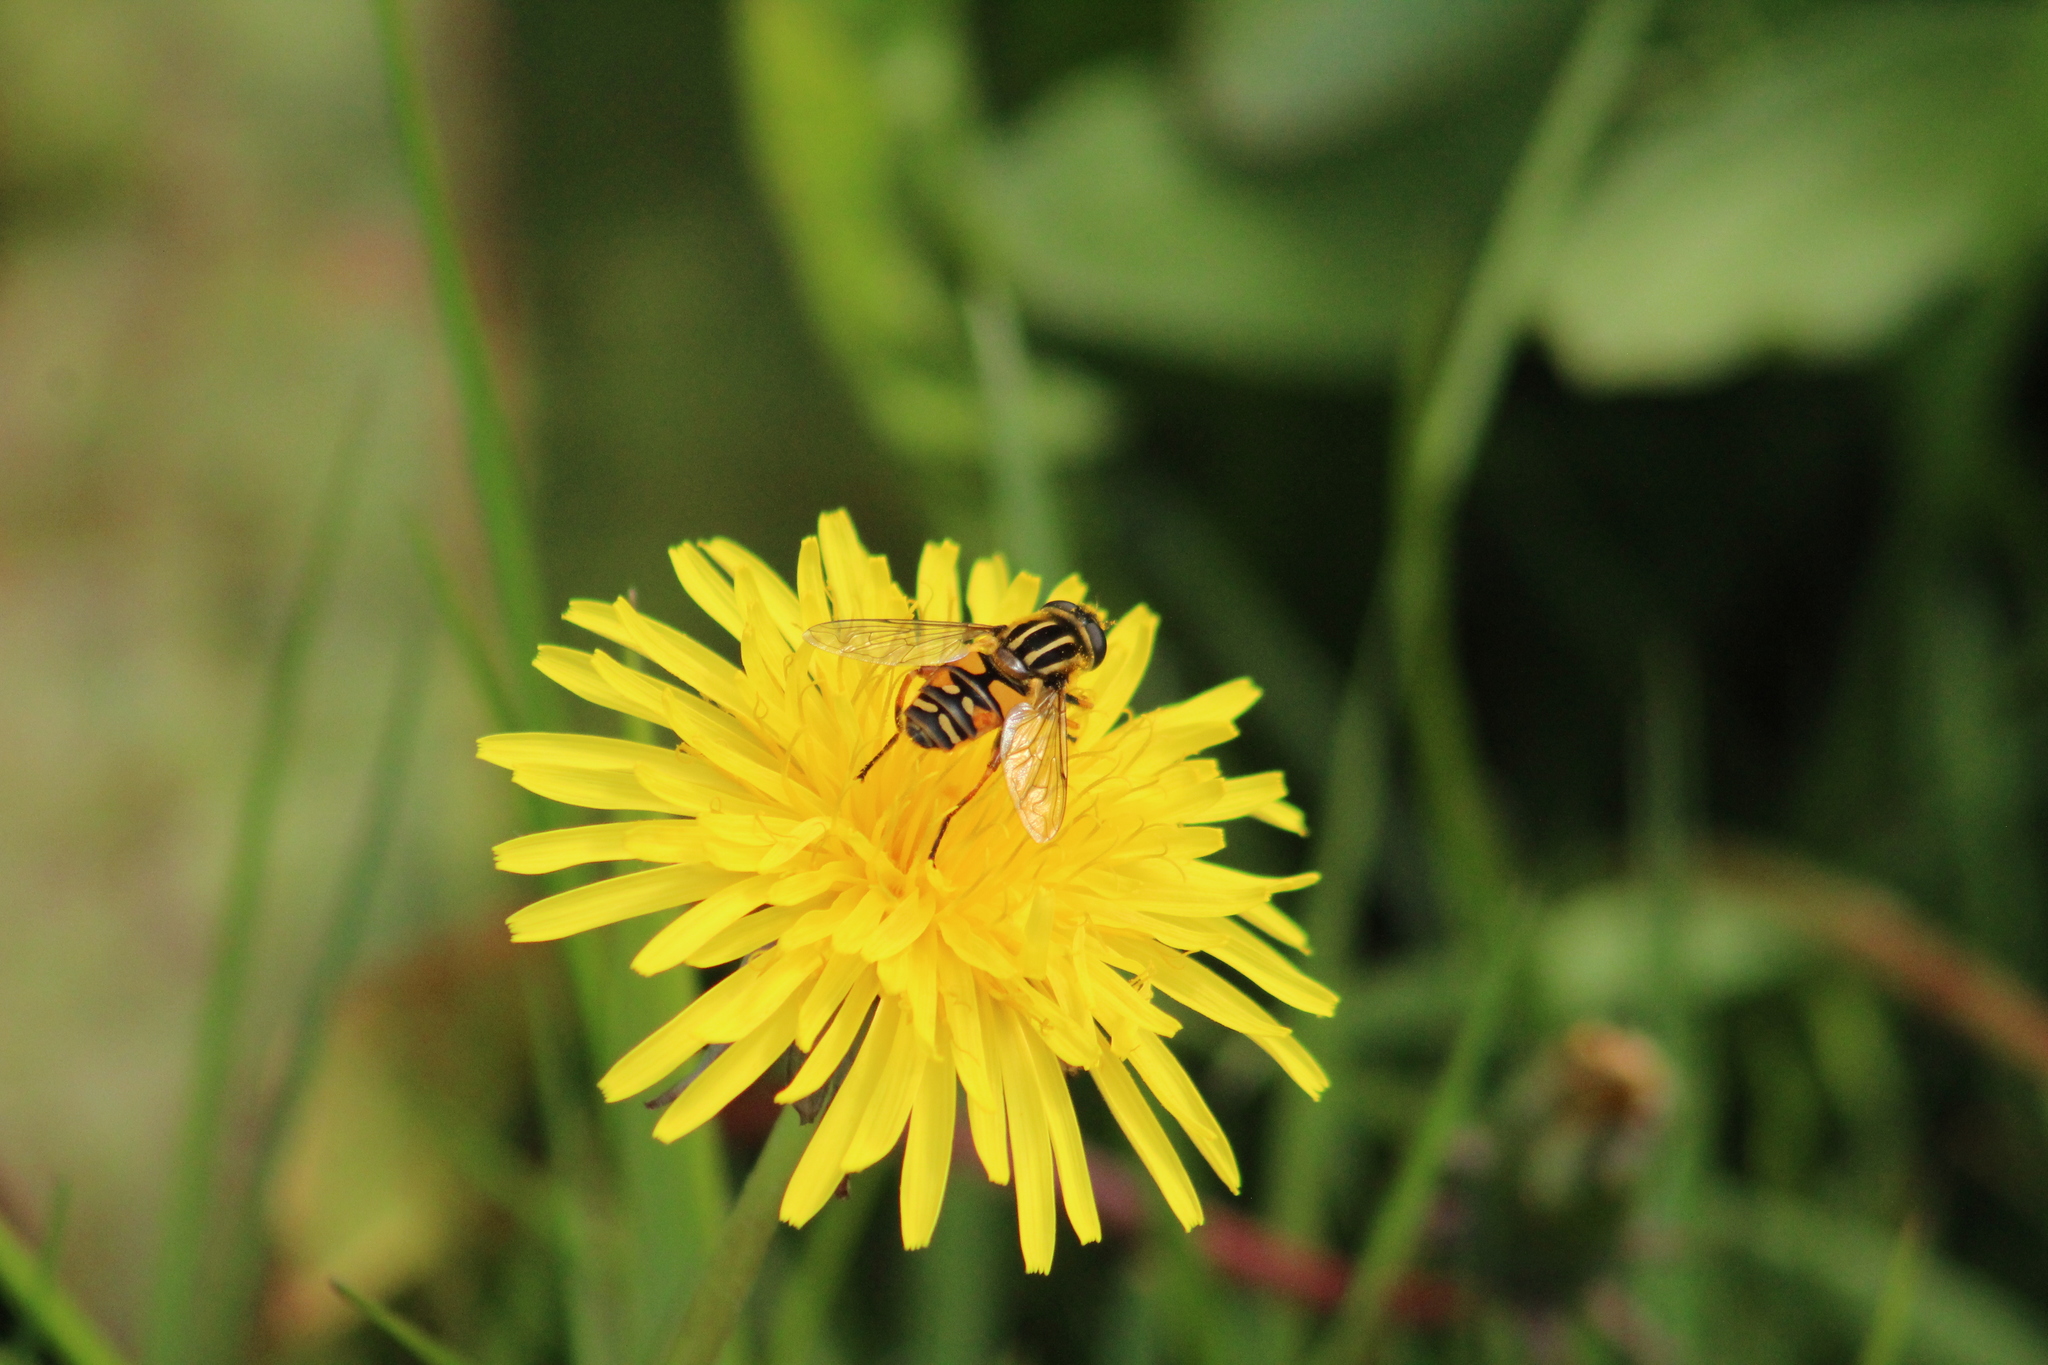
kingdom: Animalia
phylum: Arthropoda
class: Insecta
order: Diptera
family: Syrphidae
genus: Helophilus
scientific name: Helophilus pendulus
